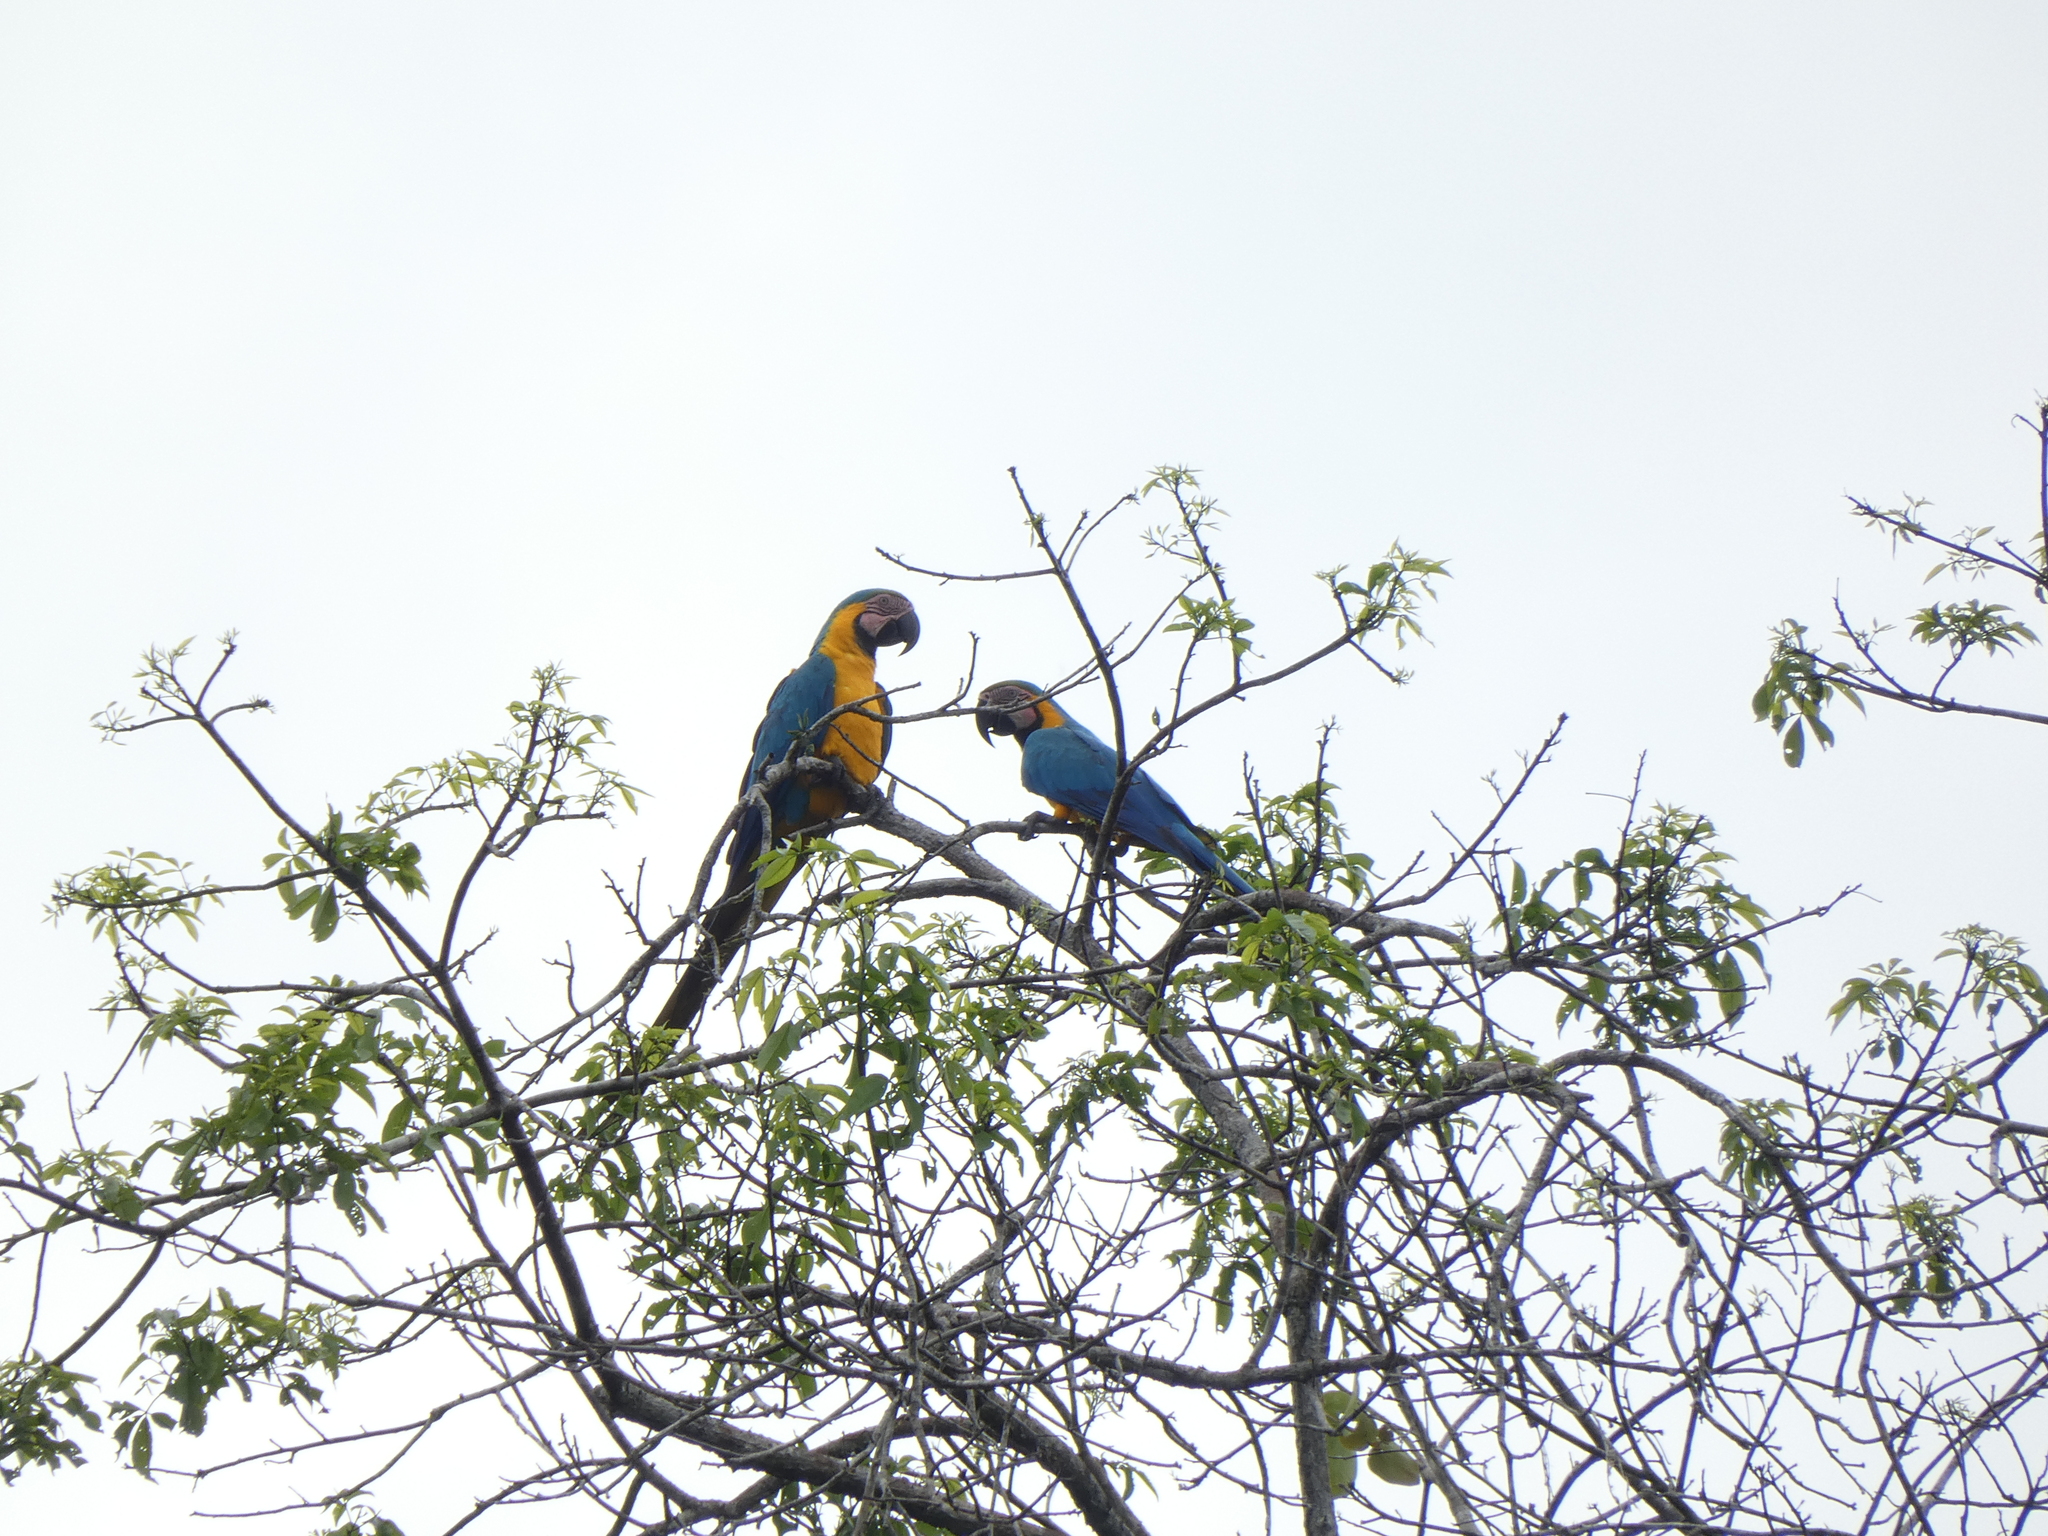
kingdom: Animalia
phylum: Chordata
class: Aves
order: Psittaciformes
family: Psittacidae
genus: Ara
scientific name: Ara ararauna
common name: Blue-and-yellow macaw
